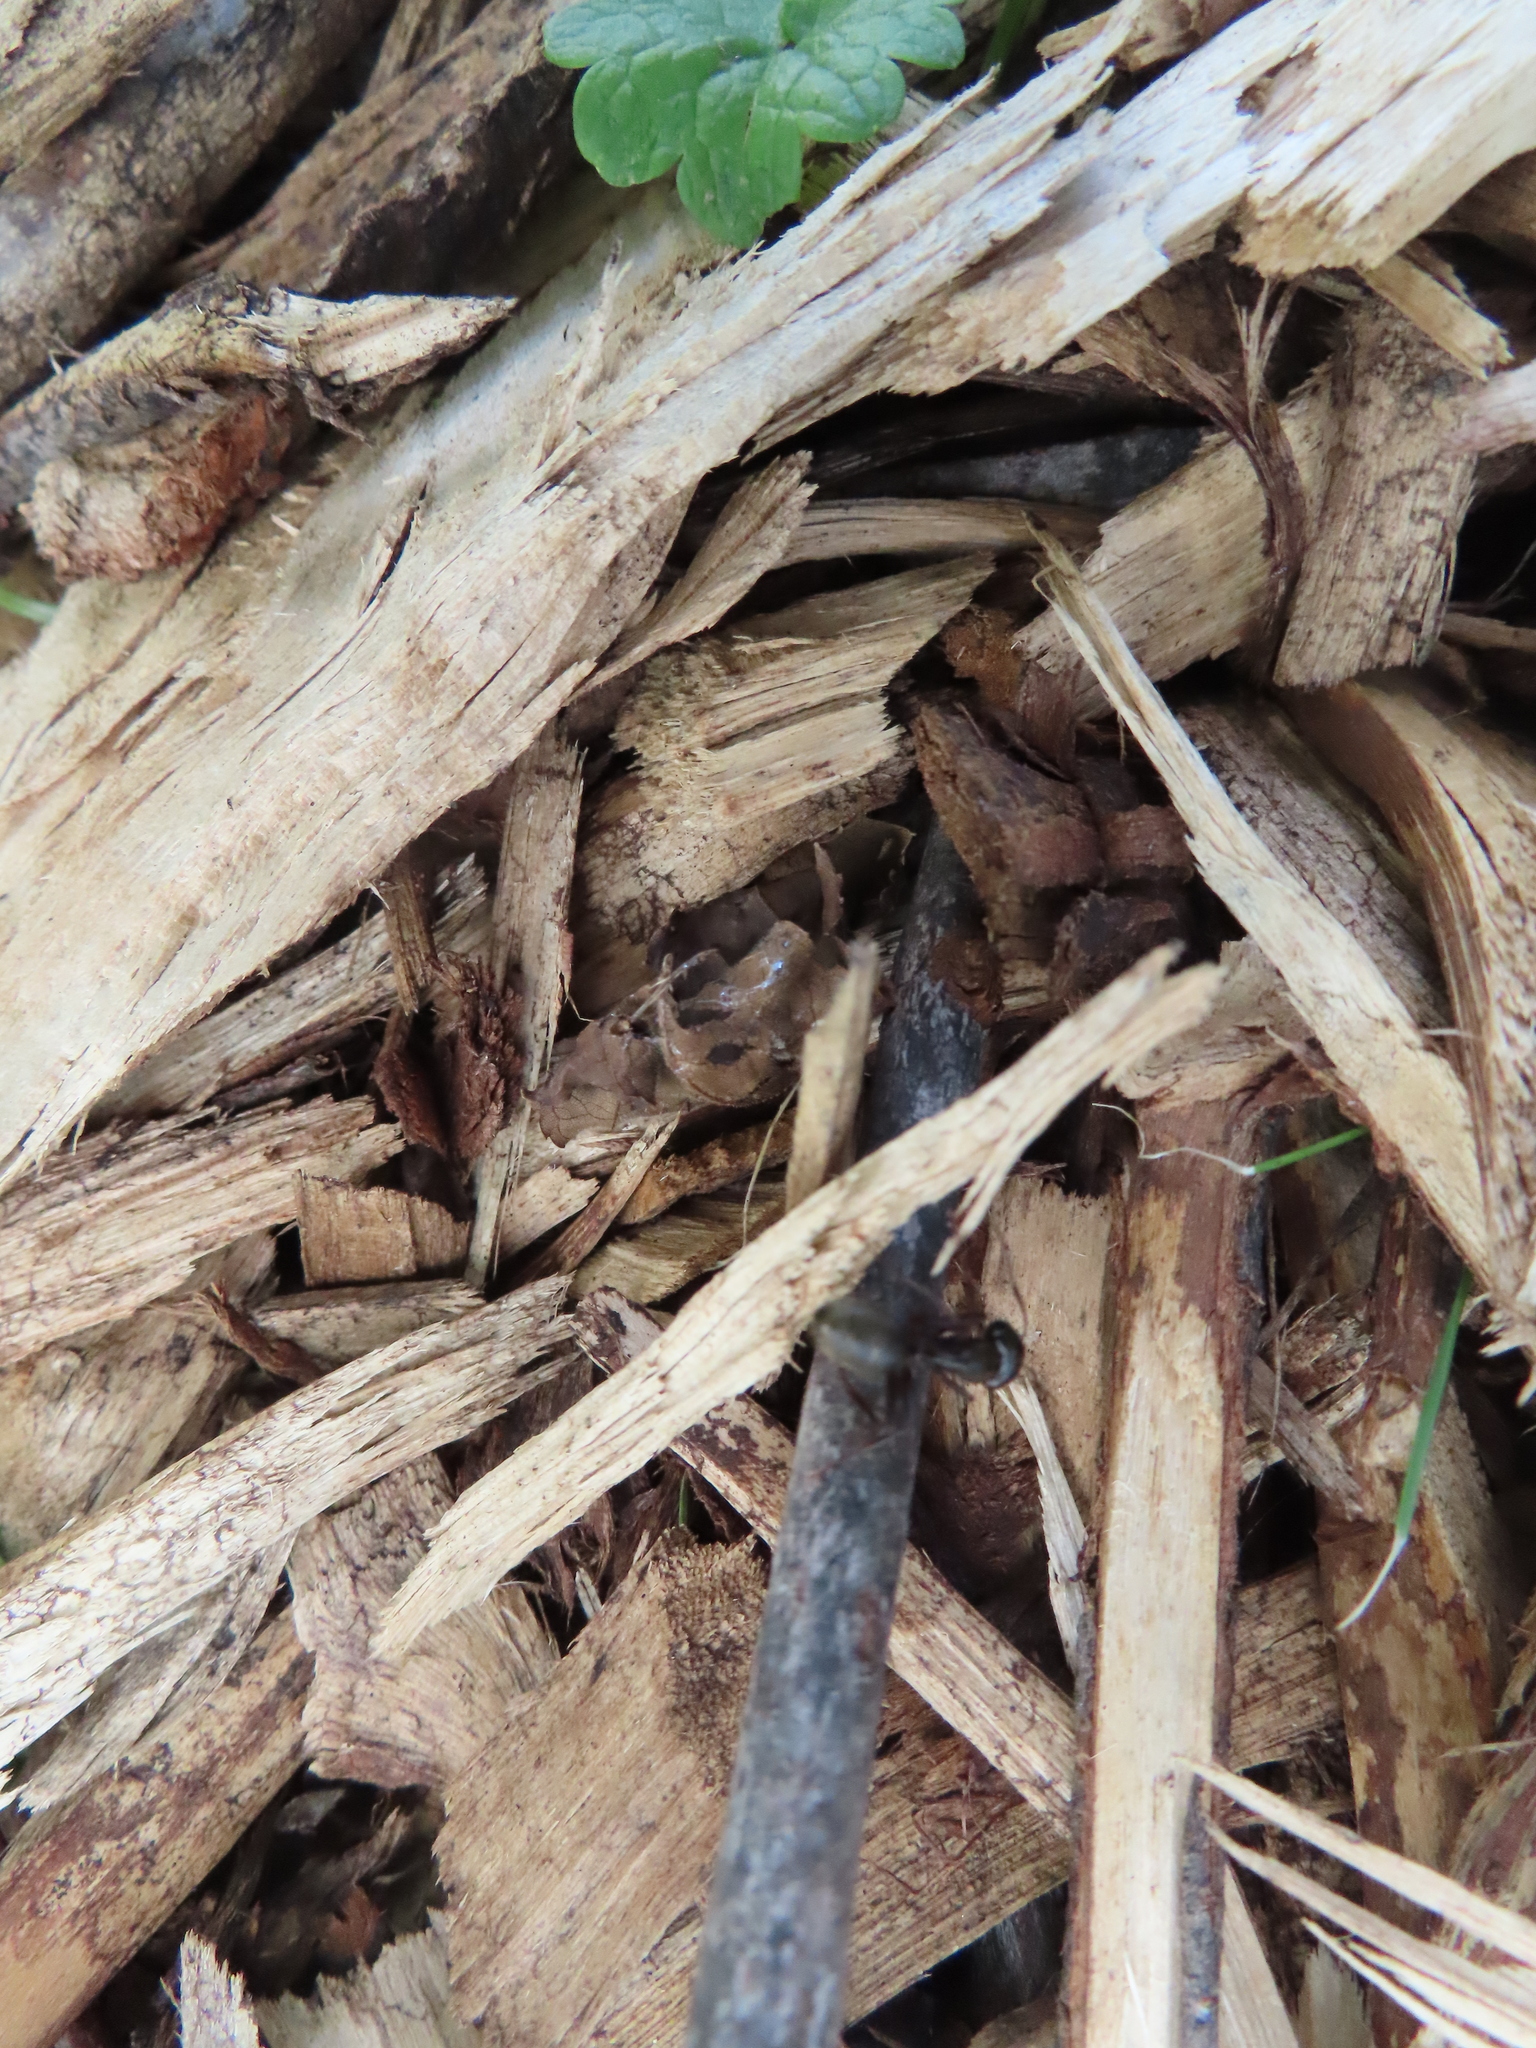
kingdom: Animalia
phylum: Arthropoda
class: Insecta
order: Hymenoptera
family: Formicidae
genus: Camponotus
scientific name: Camponotus pennsylvanicus
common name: Black carpenter ant
